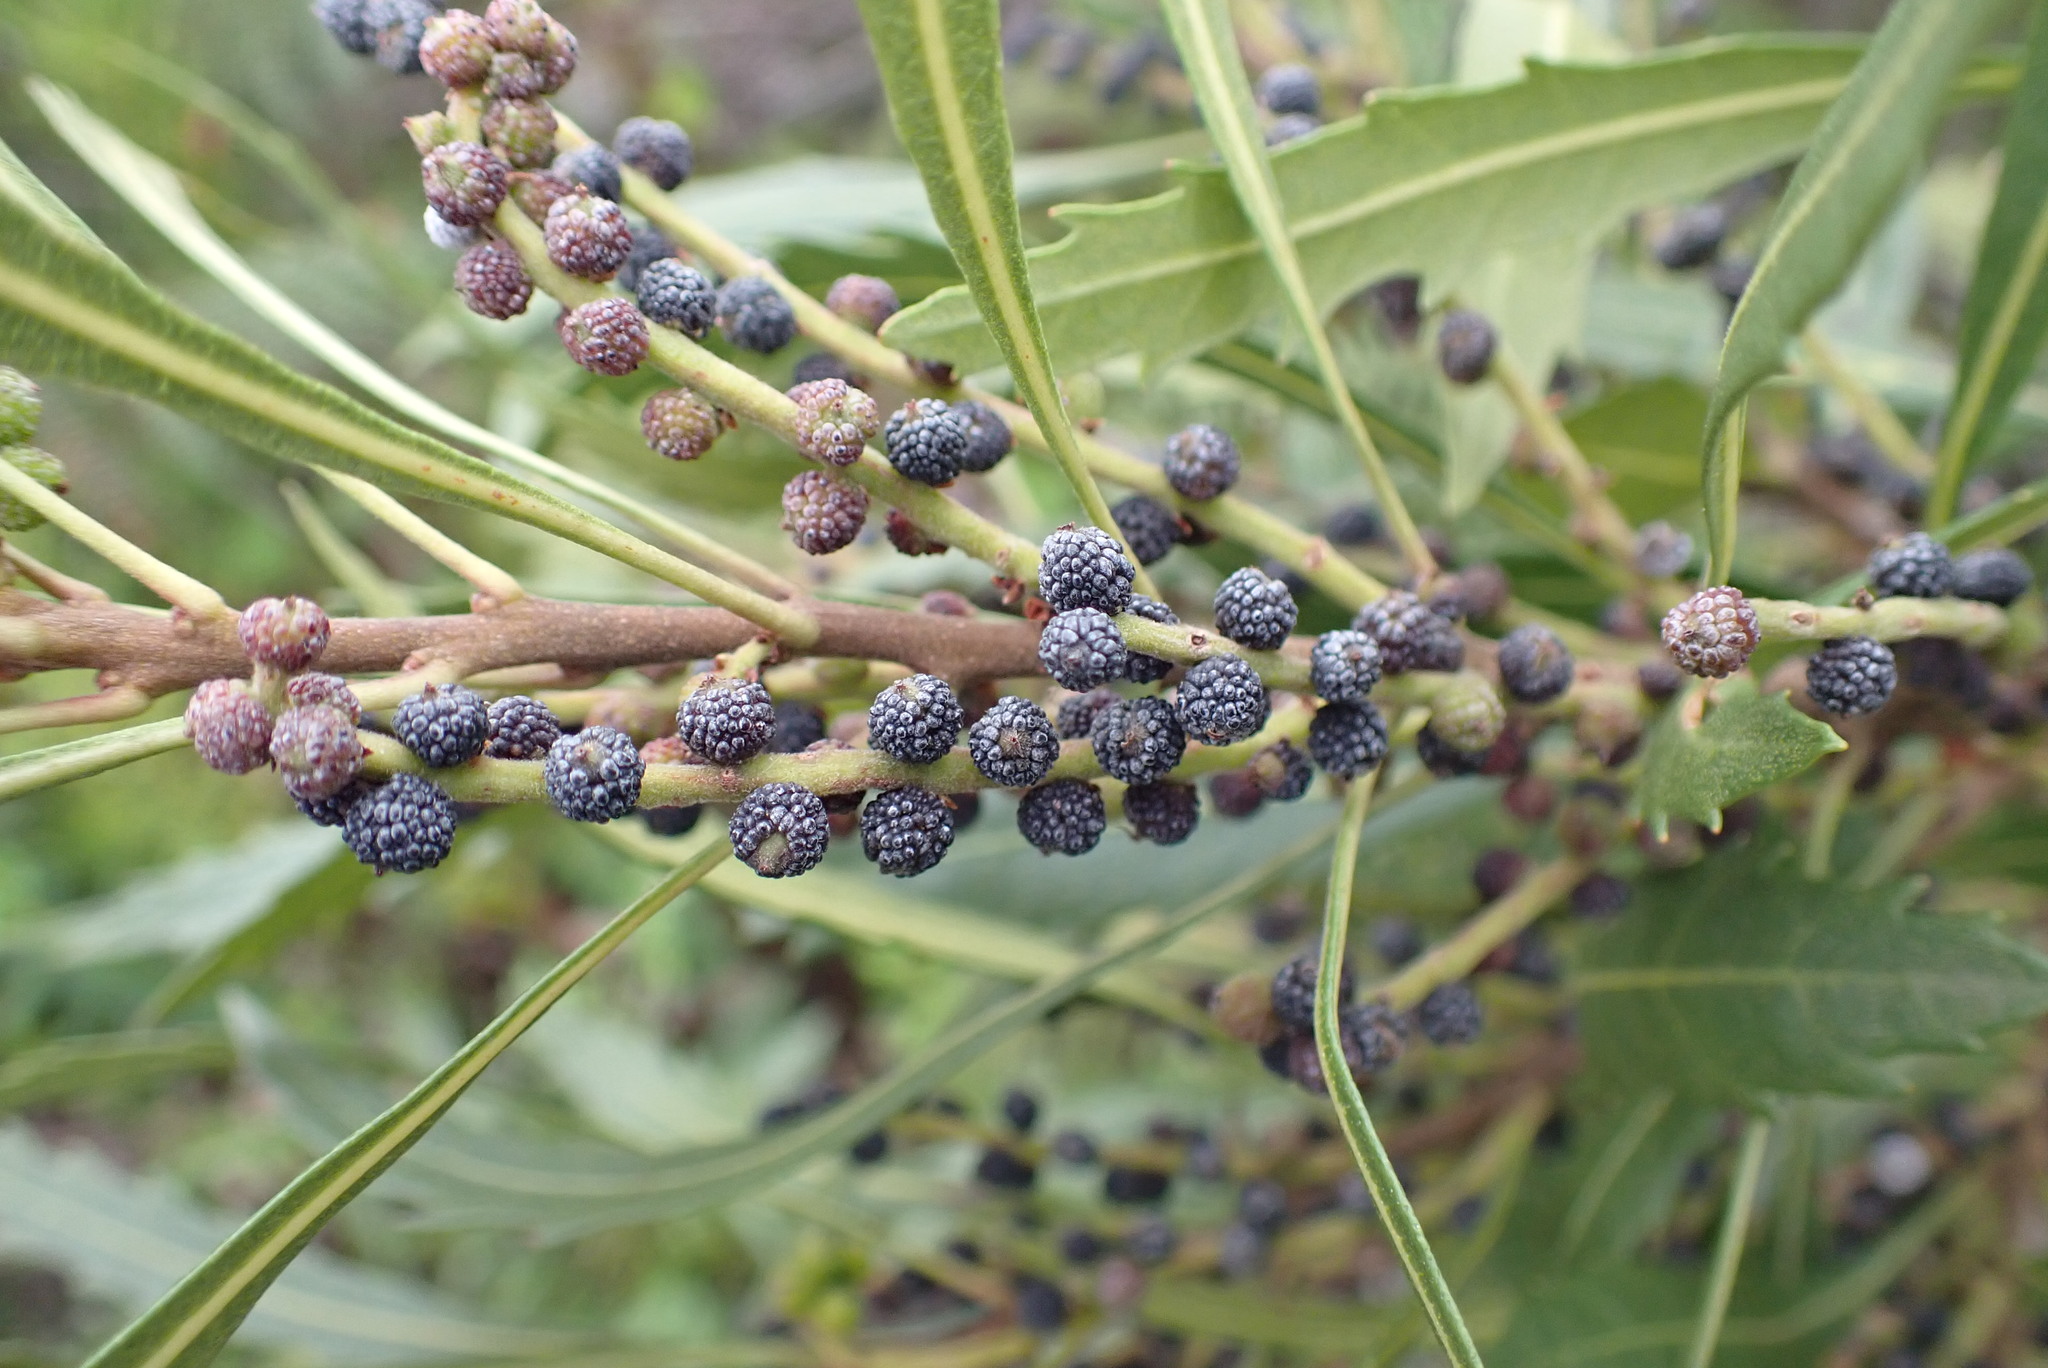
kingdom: Plantae
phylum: Tracheophyta
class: Magnoliopsida
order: Fagales
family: Myricaceae
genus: Morella
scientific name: Morella serrata
